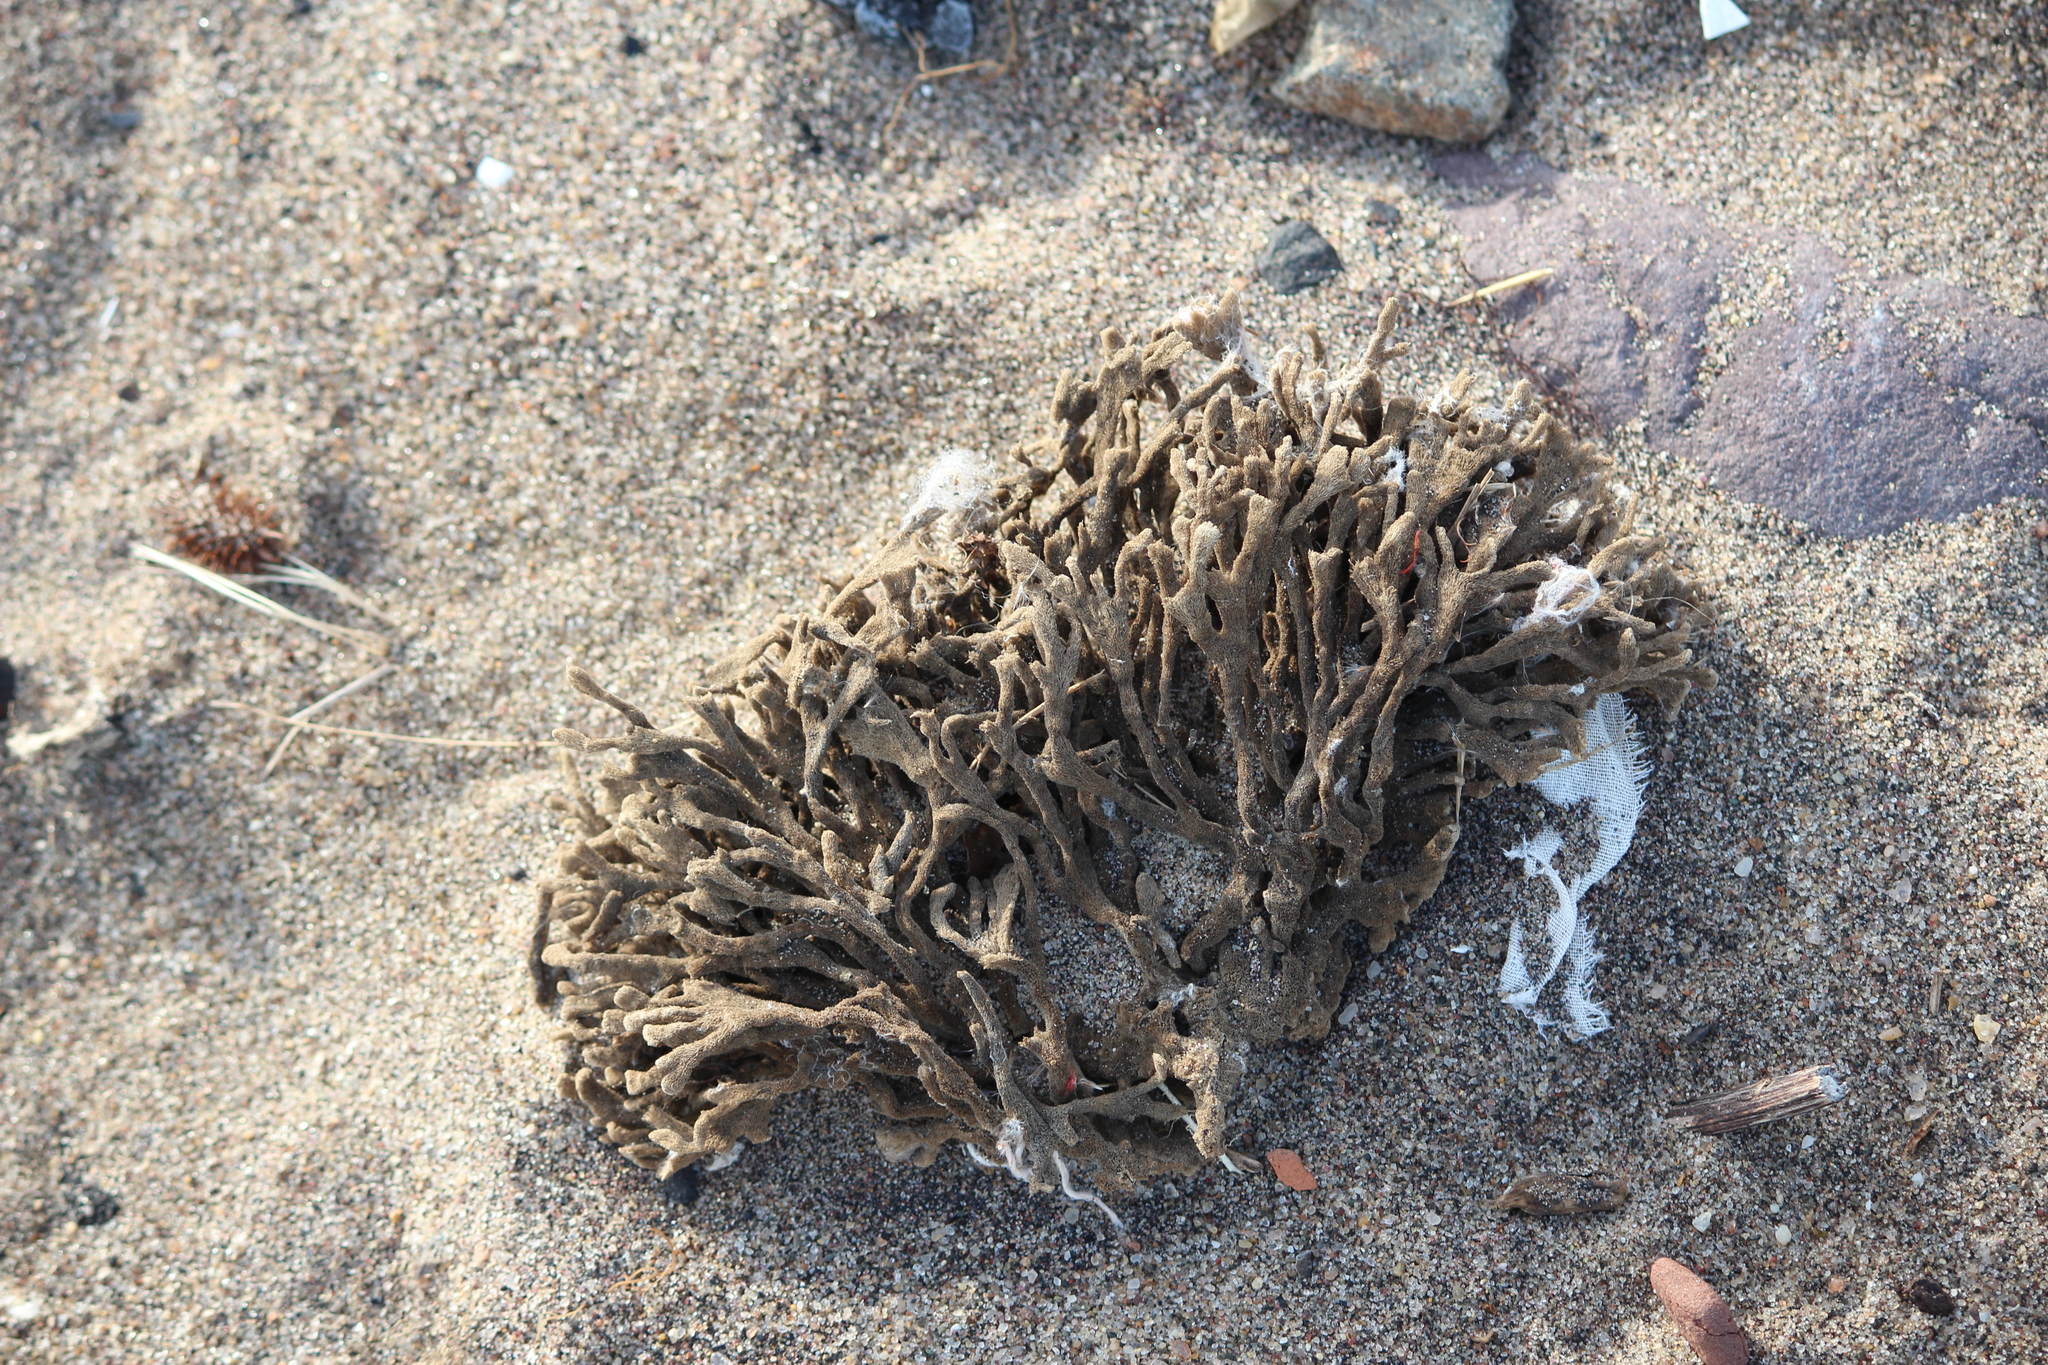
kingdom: Animalia
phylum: Porifera
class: Demospongiae
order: Poecilosclerida
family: Microcionidae
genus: Clathria
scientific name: Clathria prolifera
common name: Red beard sponge
